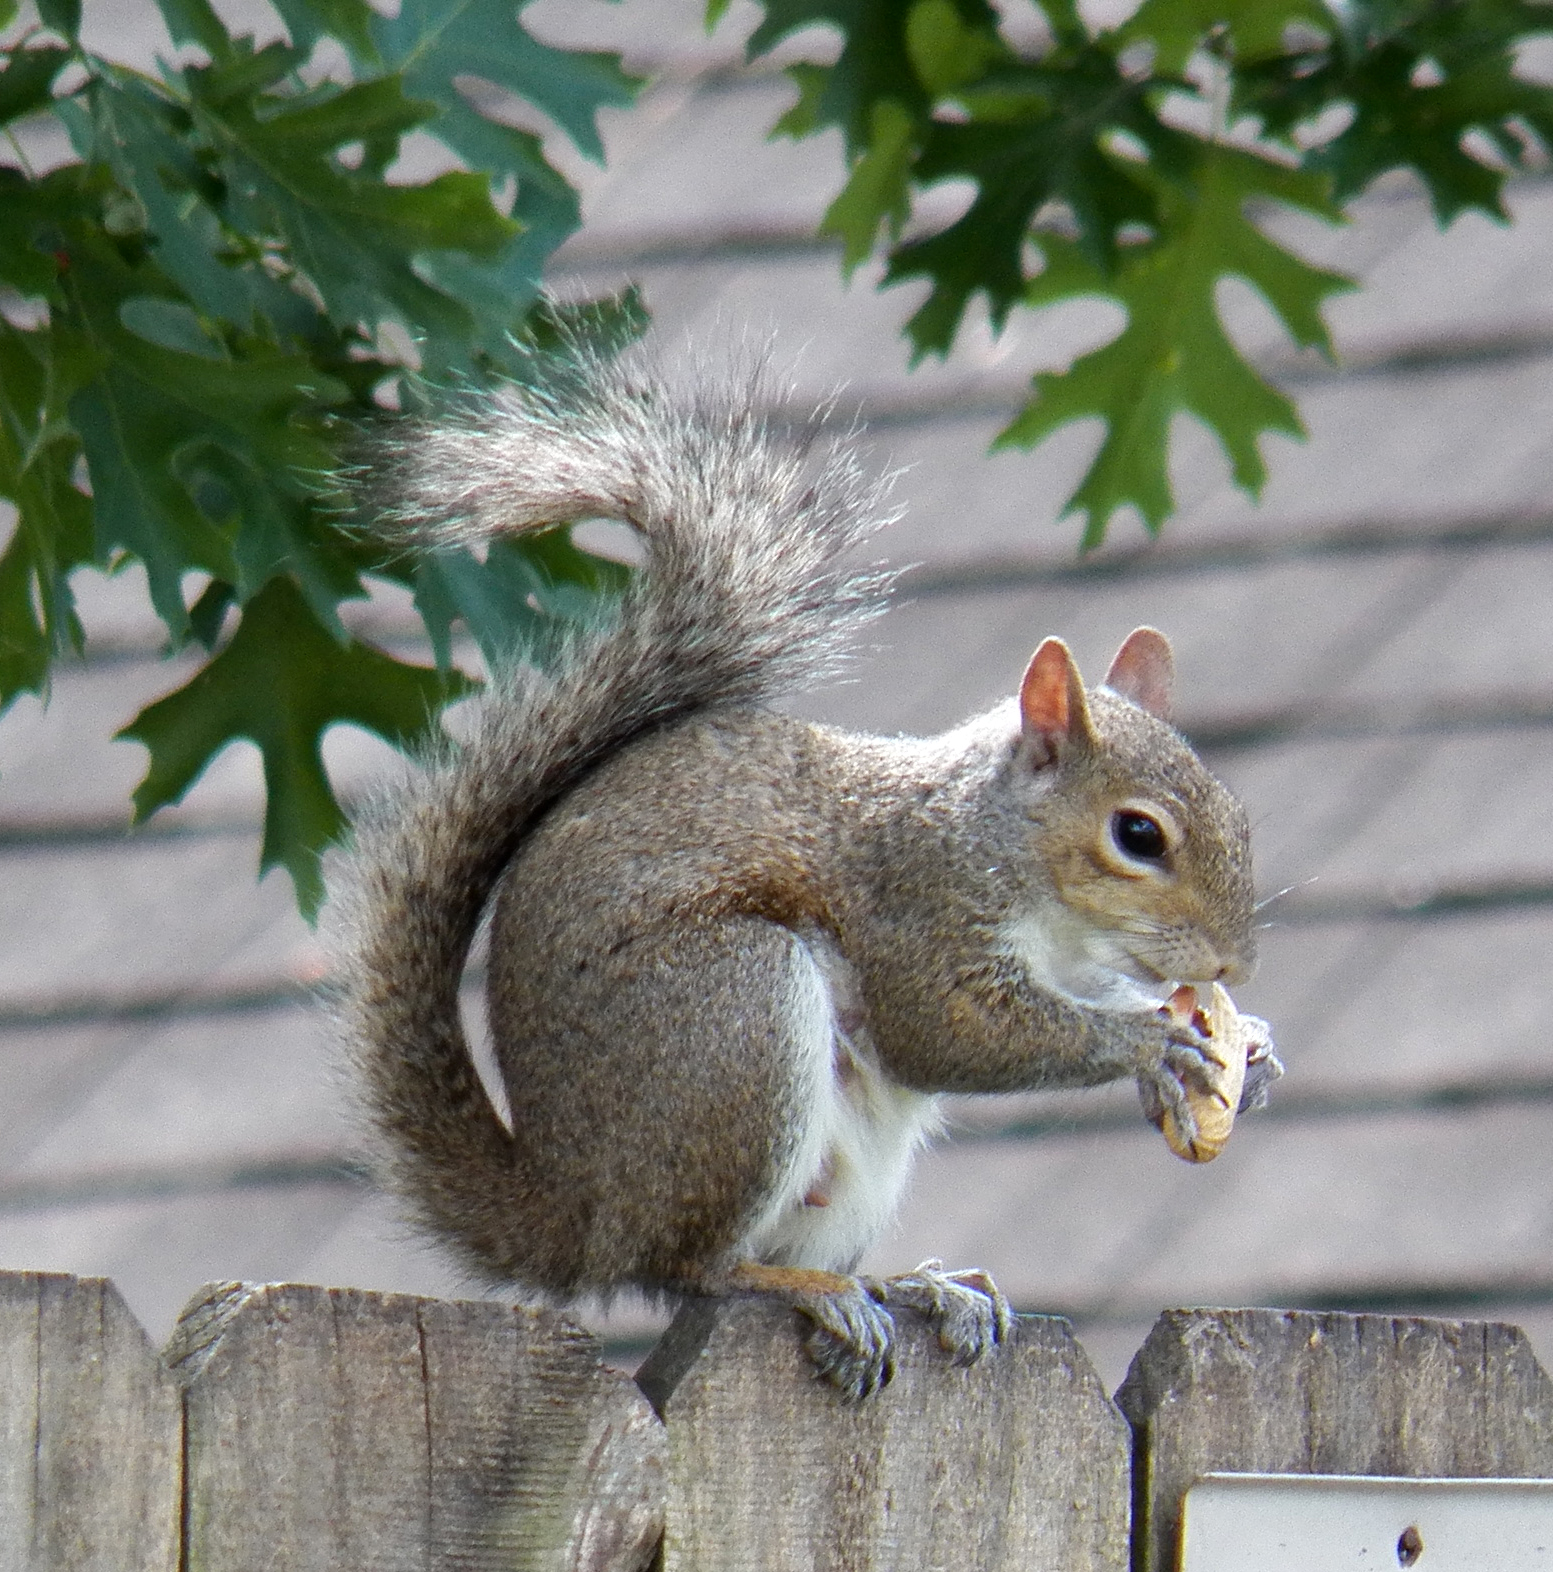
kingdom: Animalia
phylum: Chordata
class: Mammalia
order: Rodentia
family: Sciuridae
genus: Sciurus
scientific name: Sciurus carolinensis
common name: Eastern gray squirrel
